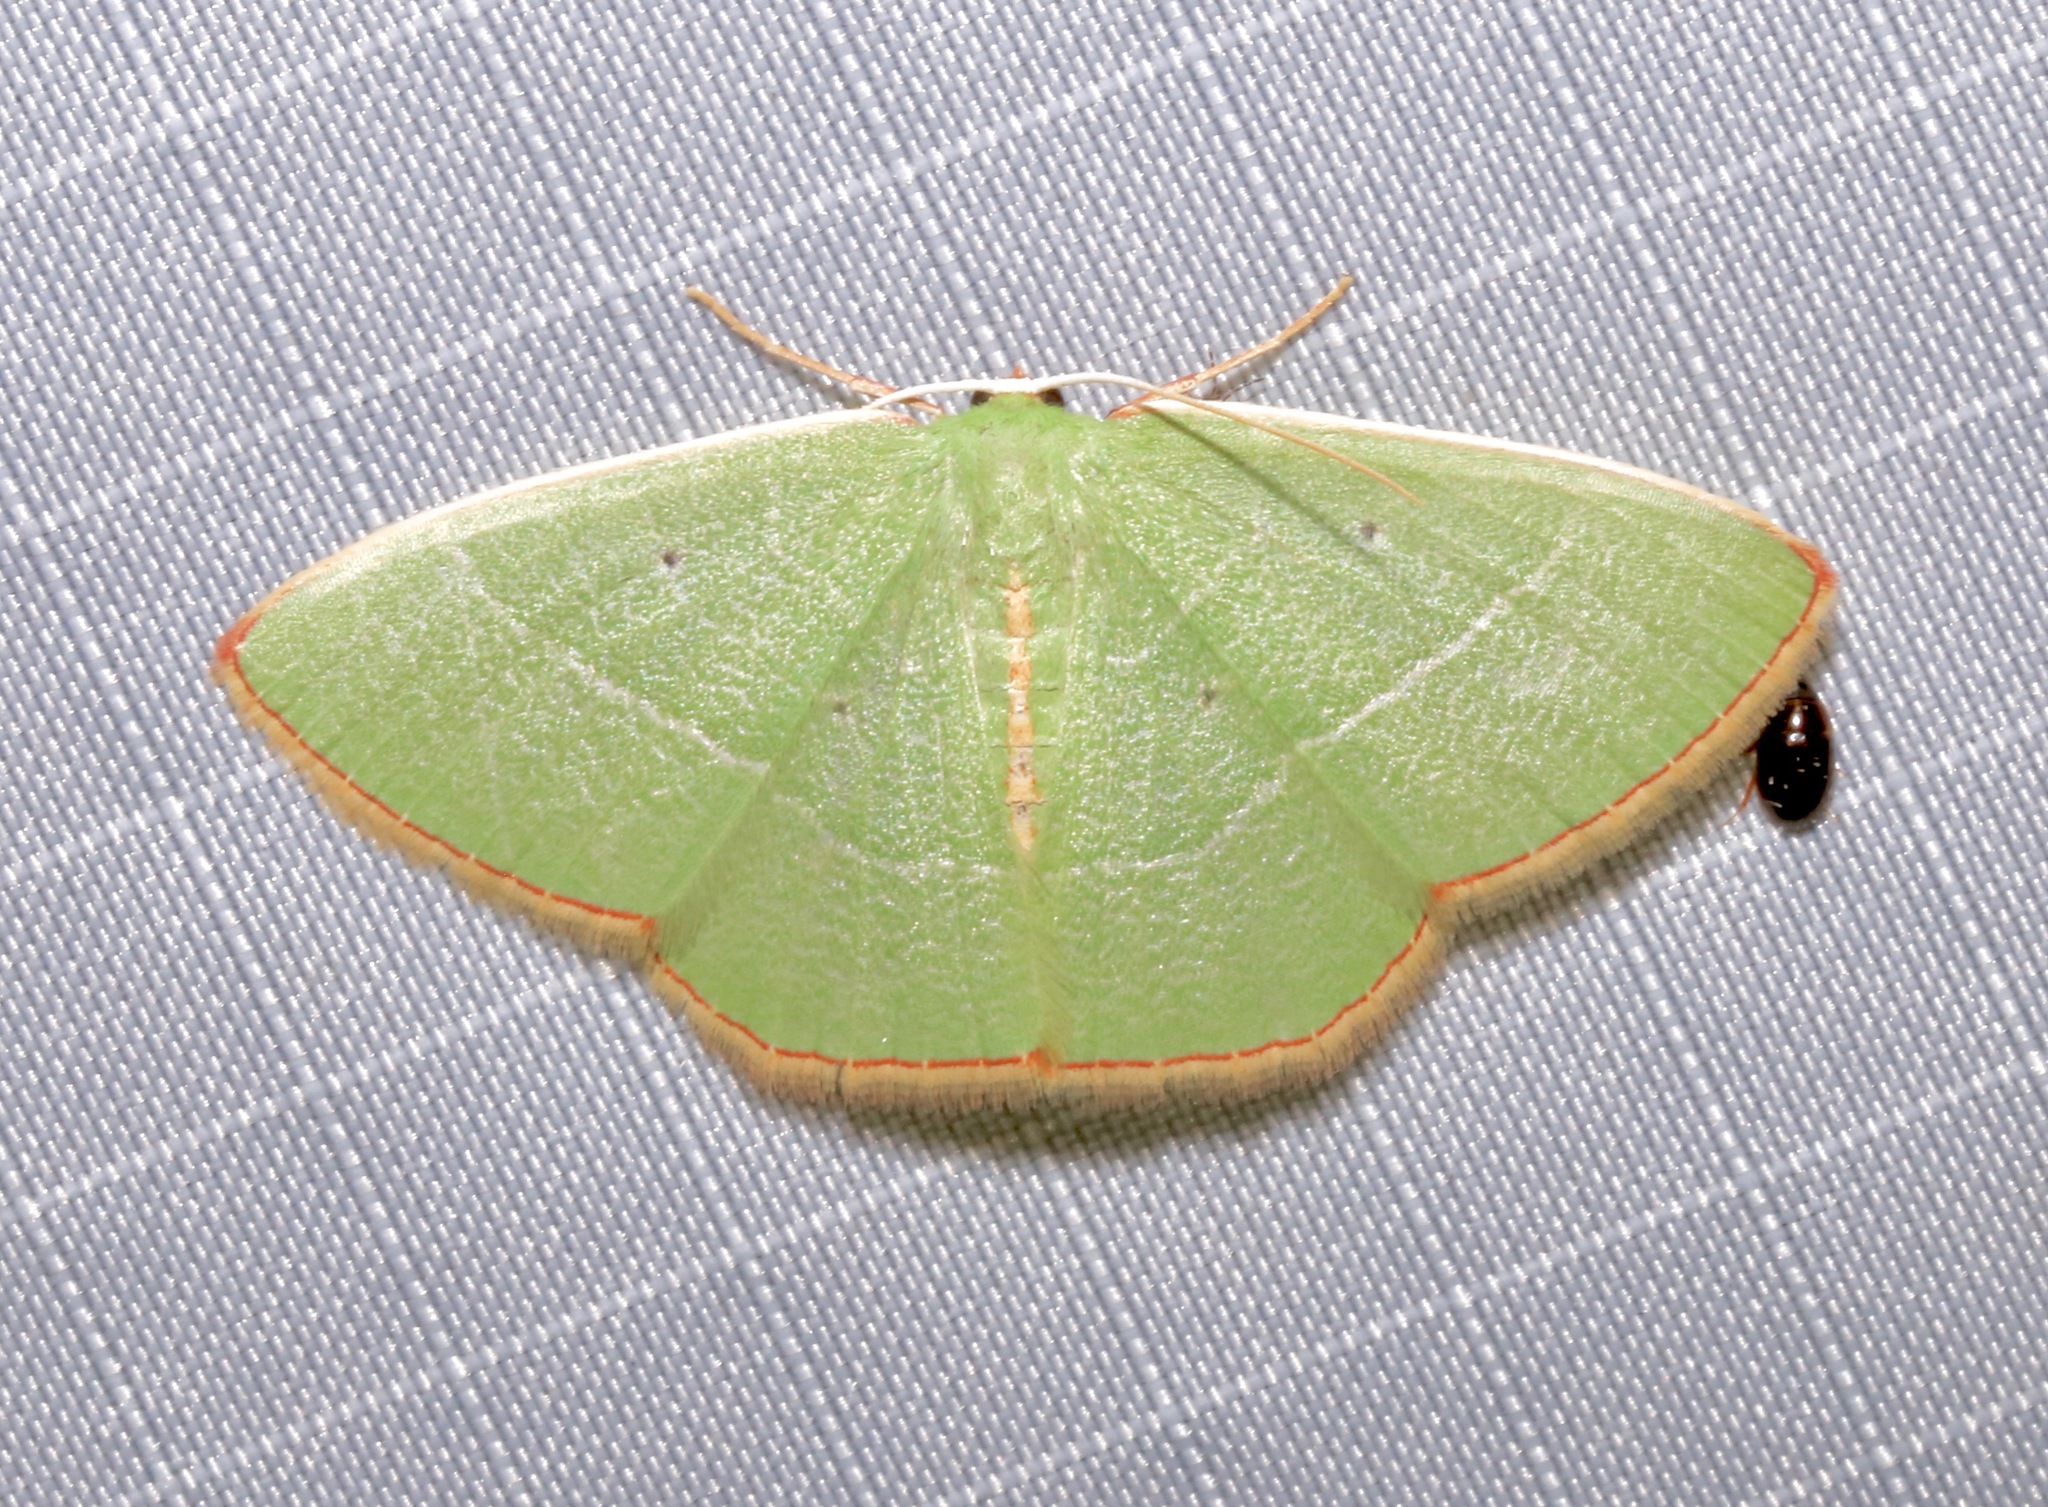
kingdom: Animalia
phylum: Arthropoda
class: Insecta
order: Lepidoptera
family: Geometridae
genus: Nemoria
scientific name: Nemoria bifilata
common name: White-barred emerald moth
